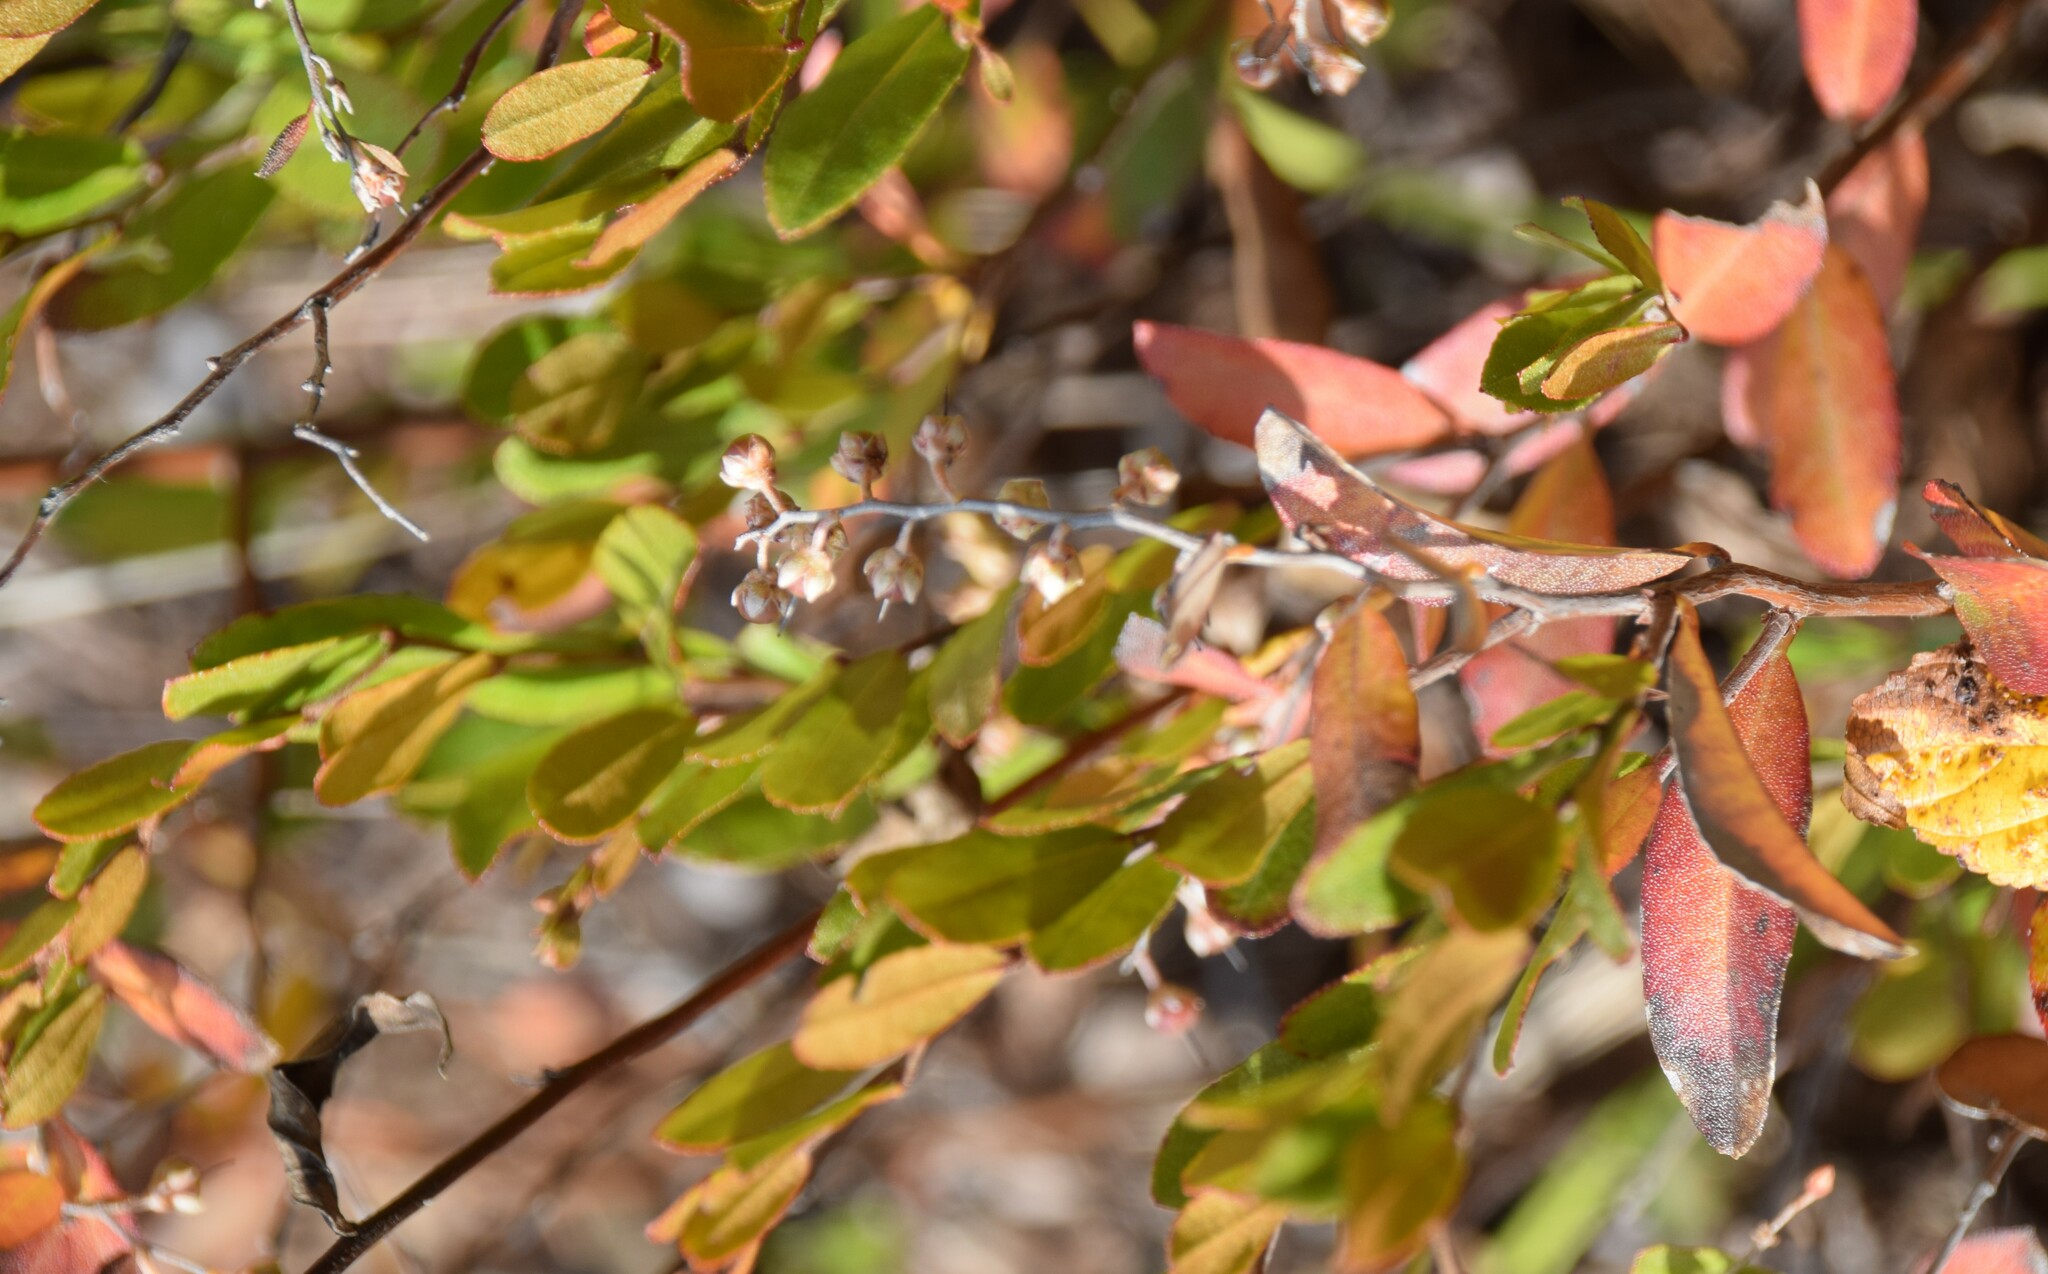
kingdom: Plantae
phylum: Tracheophyta
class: Magnoliopsida
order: Ericales
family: Ericaceae
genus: Chamaedaphne
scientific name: Chamaedaphne calyculata
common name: Leatherleaf
